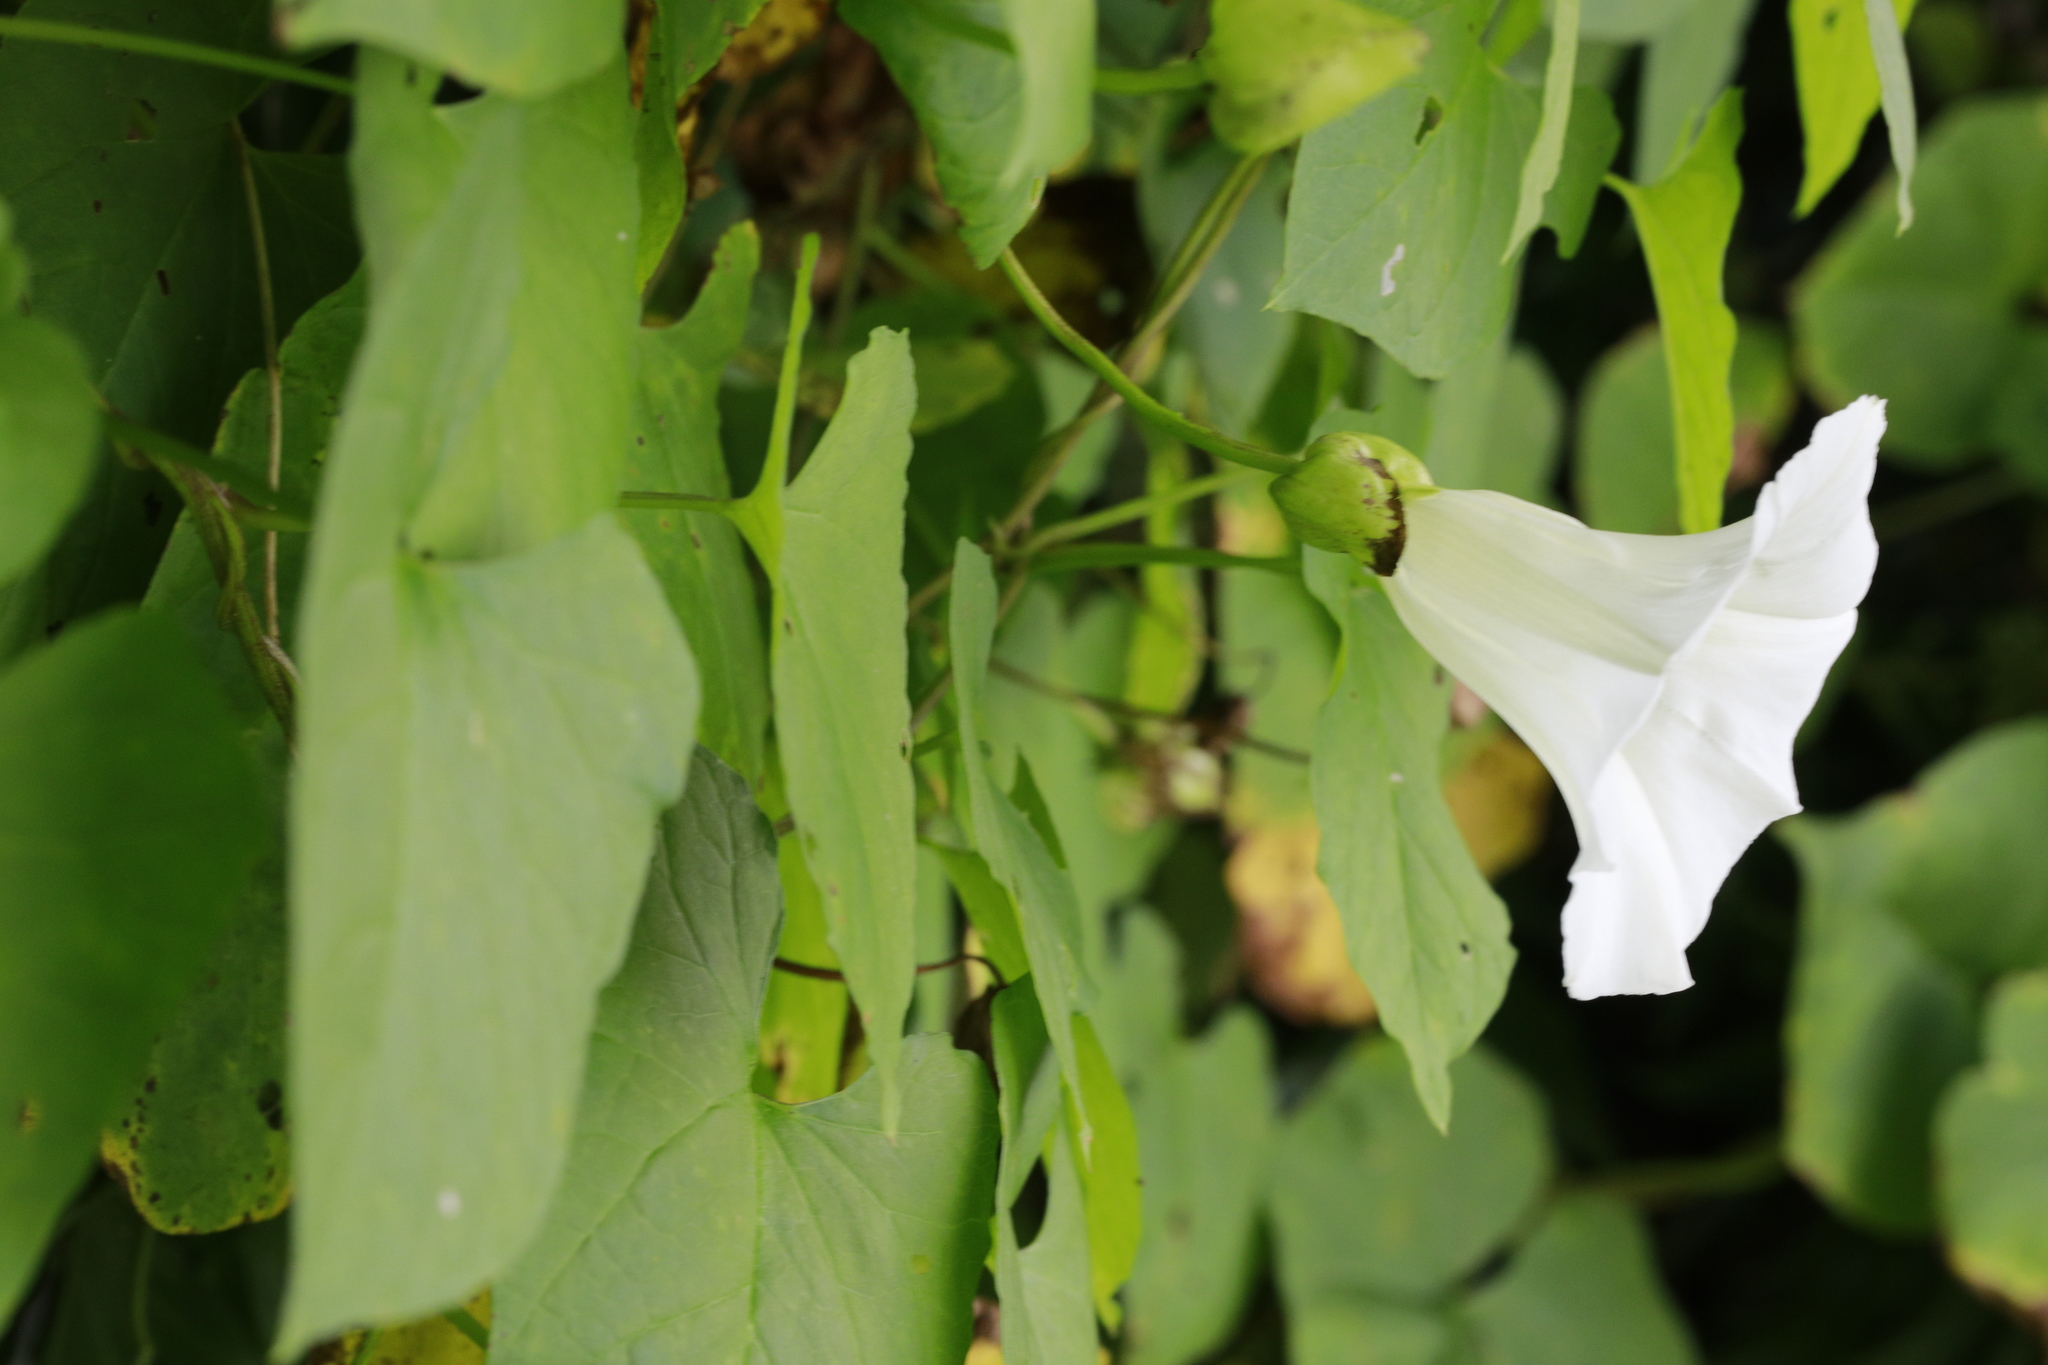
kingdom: Plantae
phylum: Tracheophyta
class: Magnoliopsida
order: Solanales
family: Convolvulaceae
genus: Calystegia
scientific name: Calystegia silvatica
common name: Large bindweed
